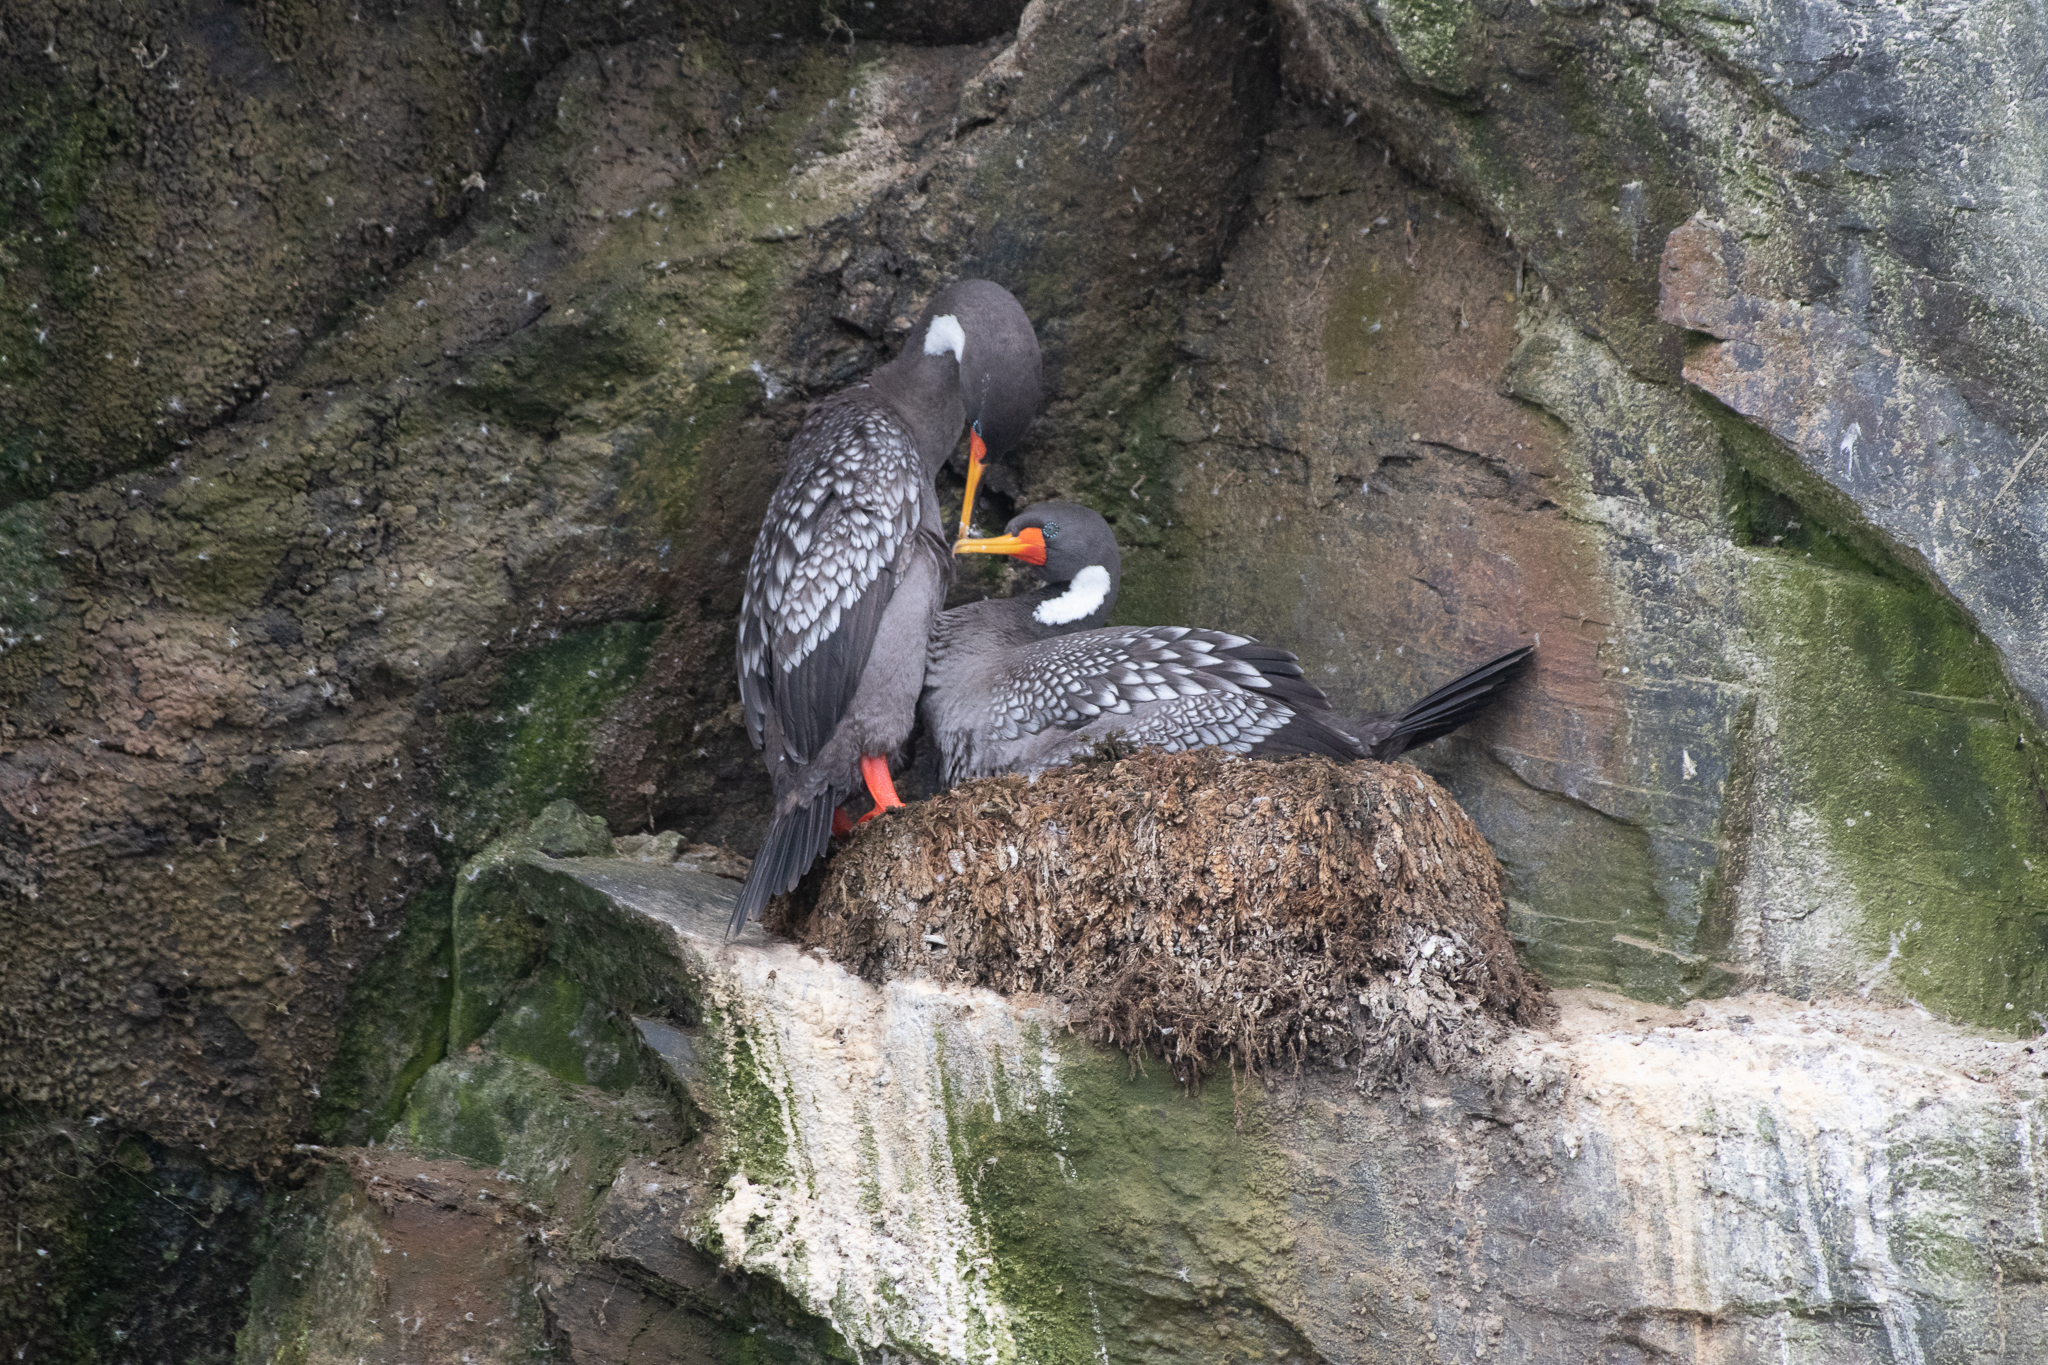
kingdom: Animalia
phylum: Chordata
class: Aves
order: Suliformes
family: Phalacrocoracidae
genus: Phalacrocorax
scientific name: Phalacrocorax gaimardi
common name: Red-legged cormorant
